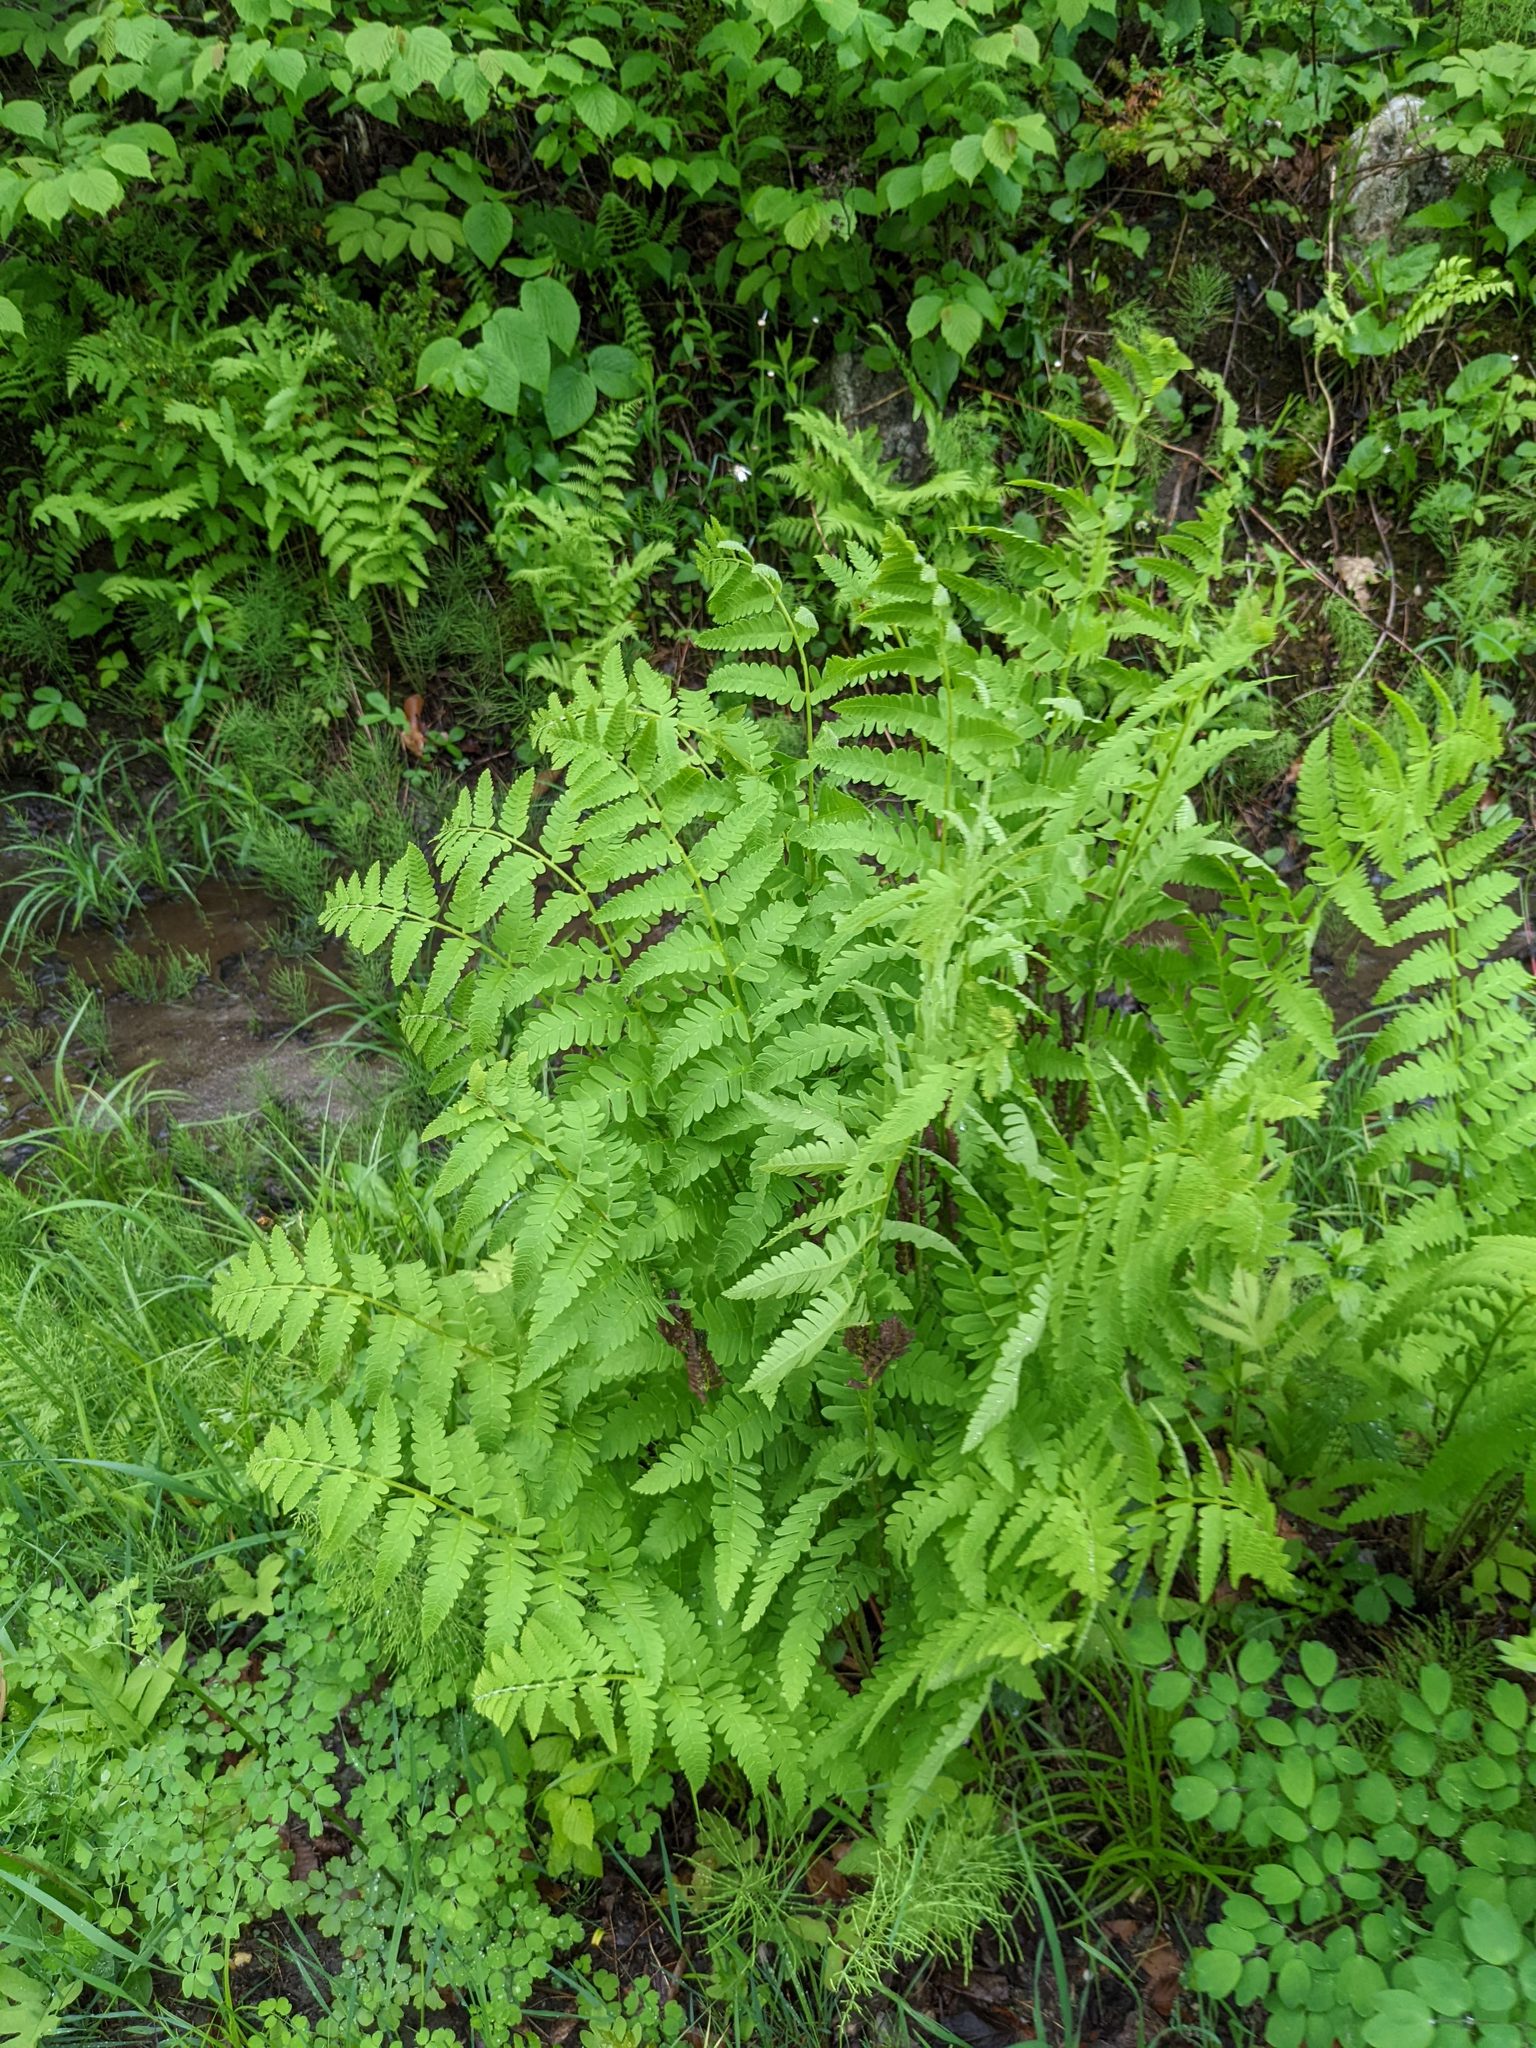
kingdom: Plantae
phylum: Tracheophyta
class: Polypodiopsida
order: Osmundales
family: Osmundaceae
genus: Claytosmunda
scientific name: Claytosmunda claytoniana
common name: Clayton's fern
